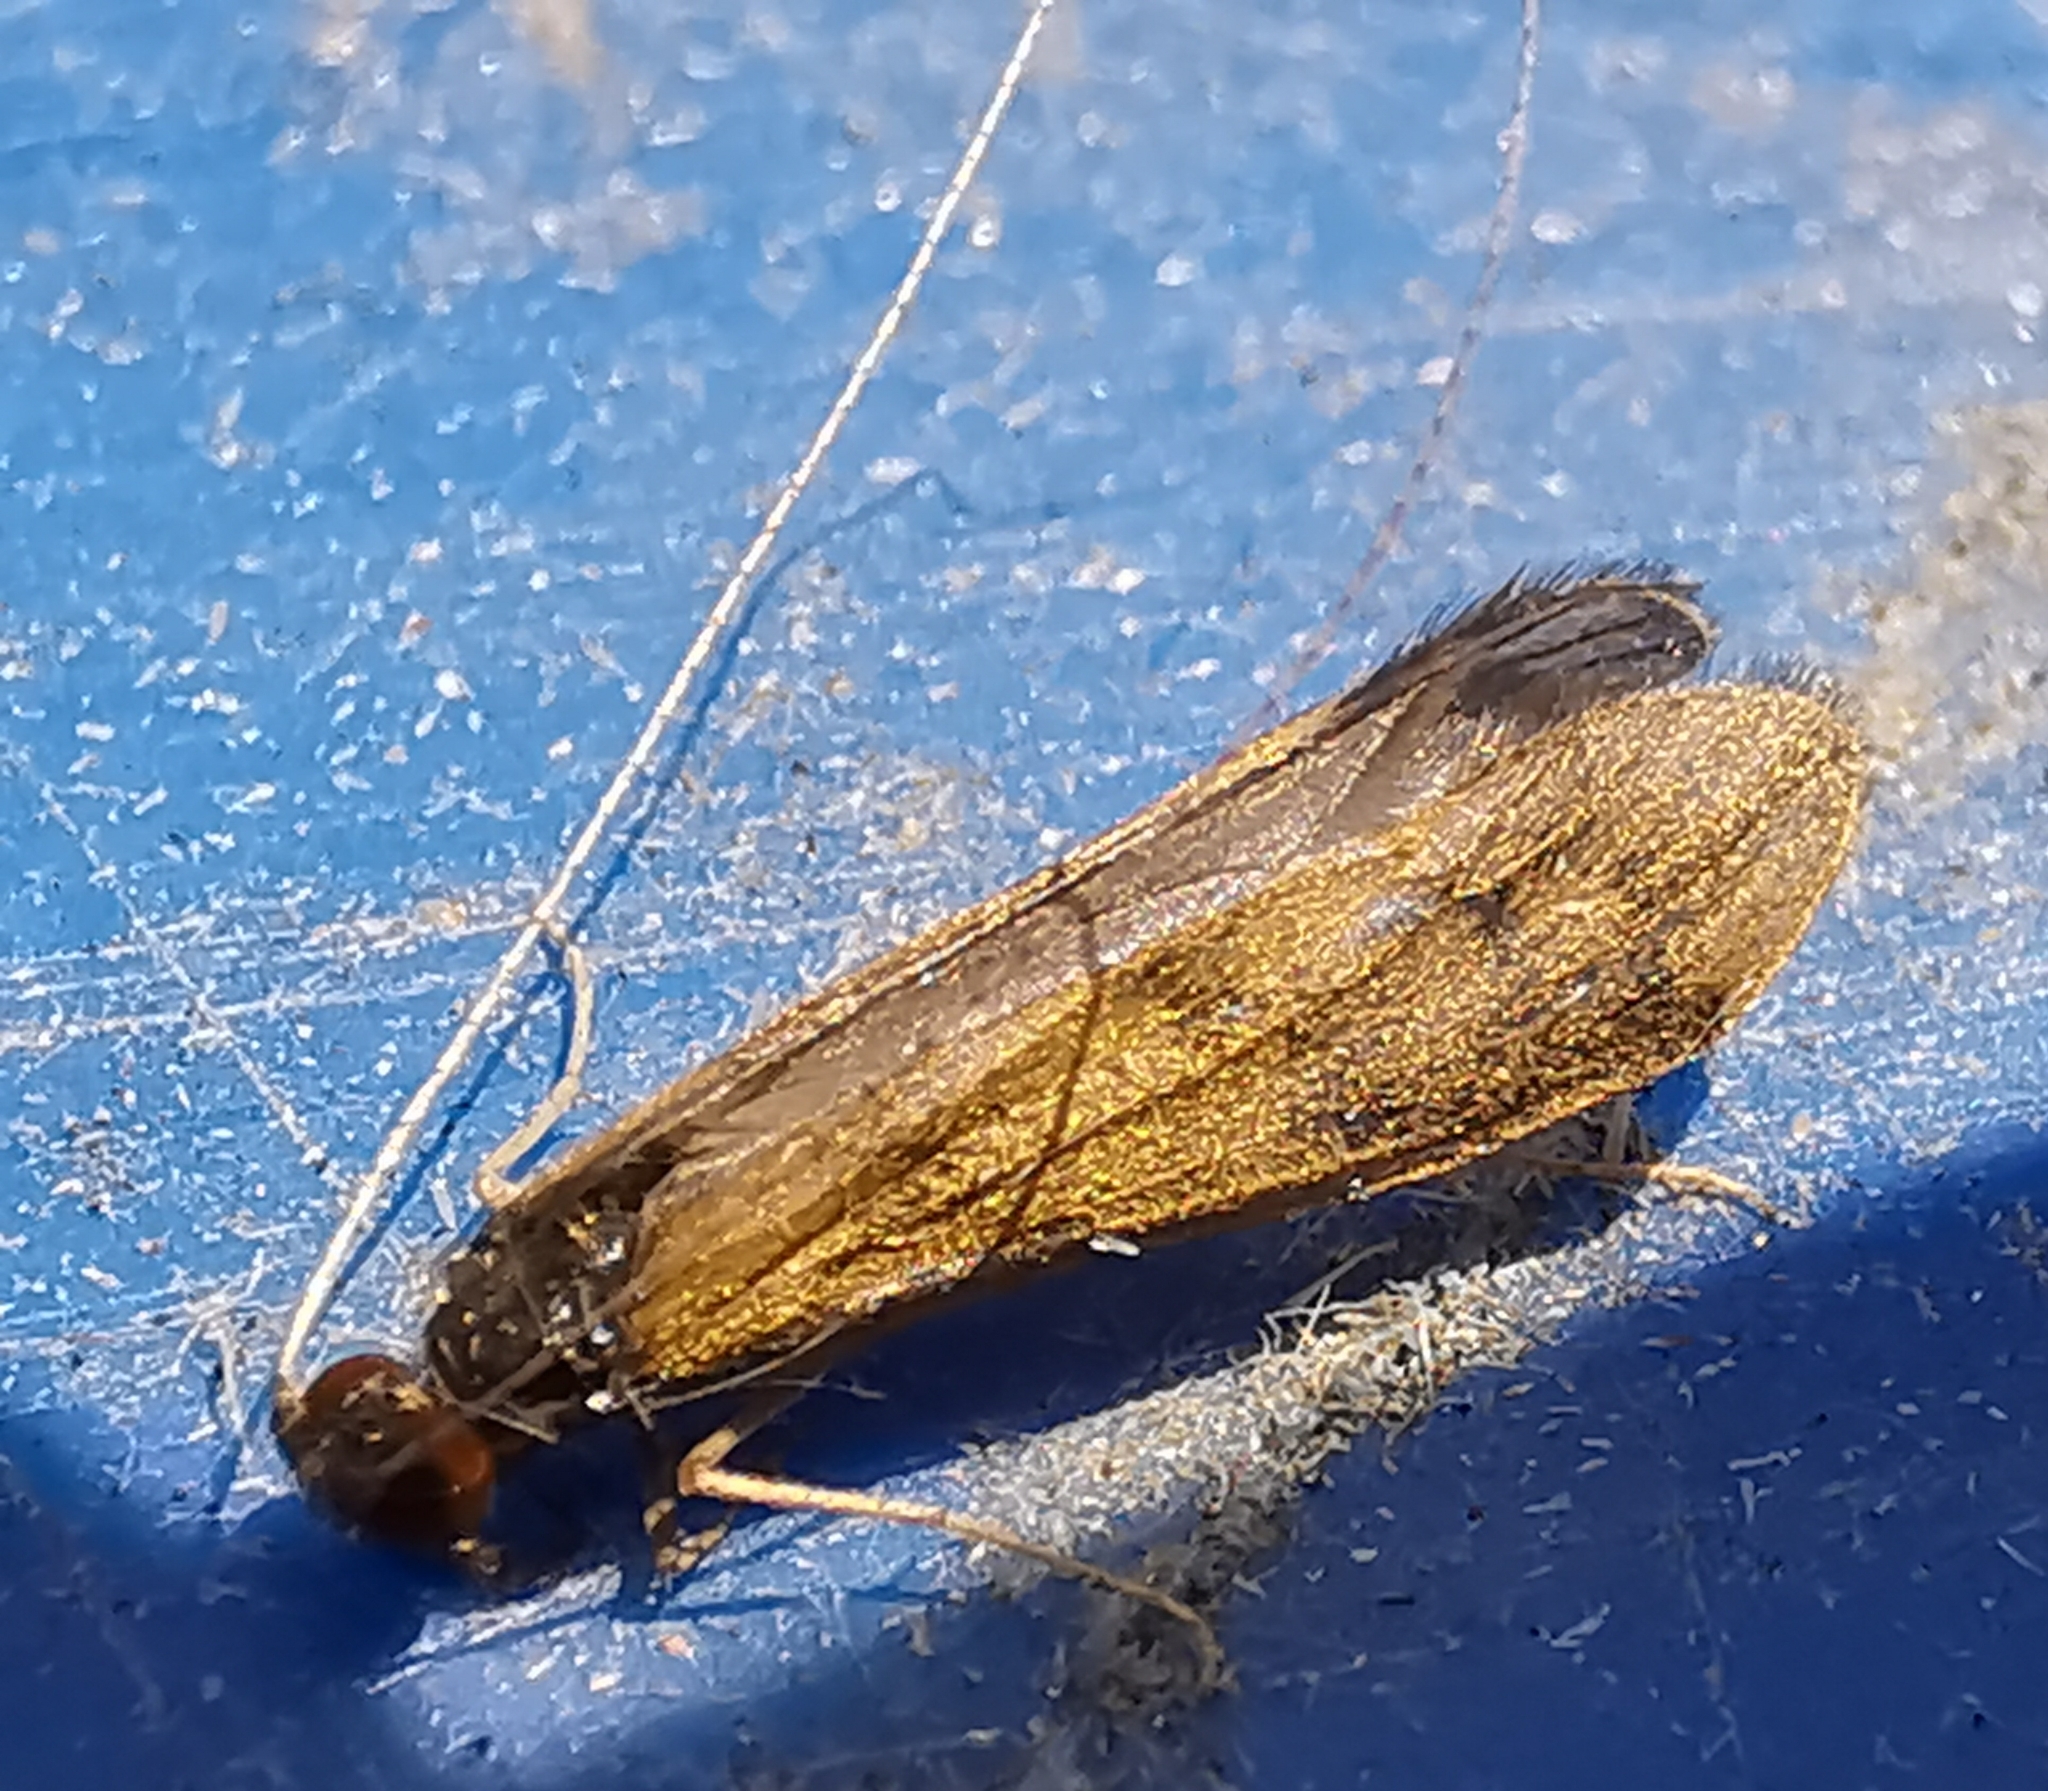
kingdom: Animalia
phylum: Arthropoda
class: Insecta
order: Trichoptera
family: Leptoceridae
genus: Mystacides
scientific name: Mystacides longicornis
